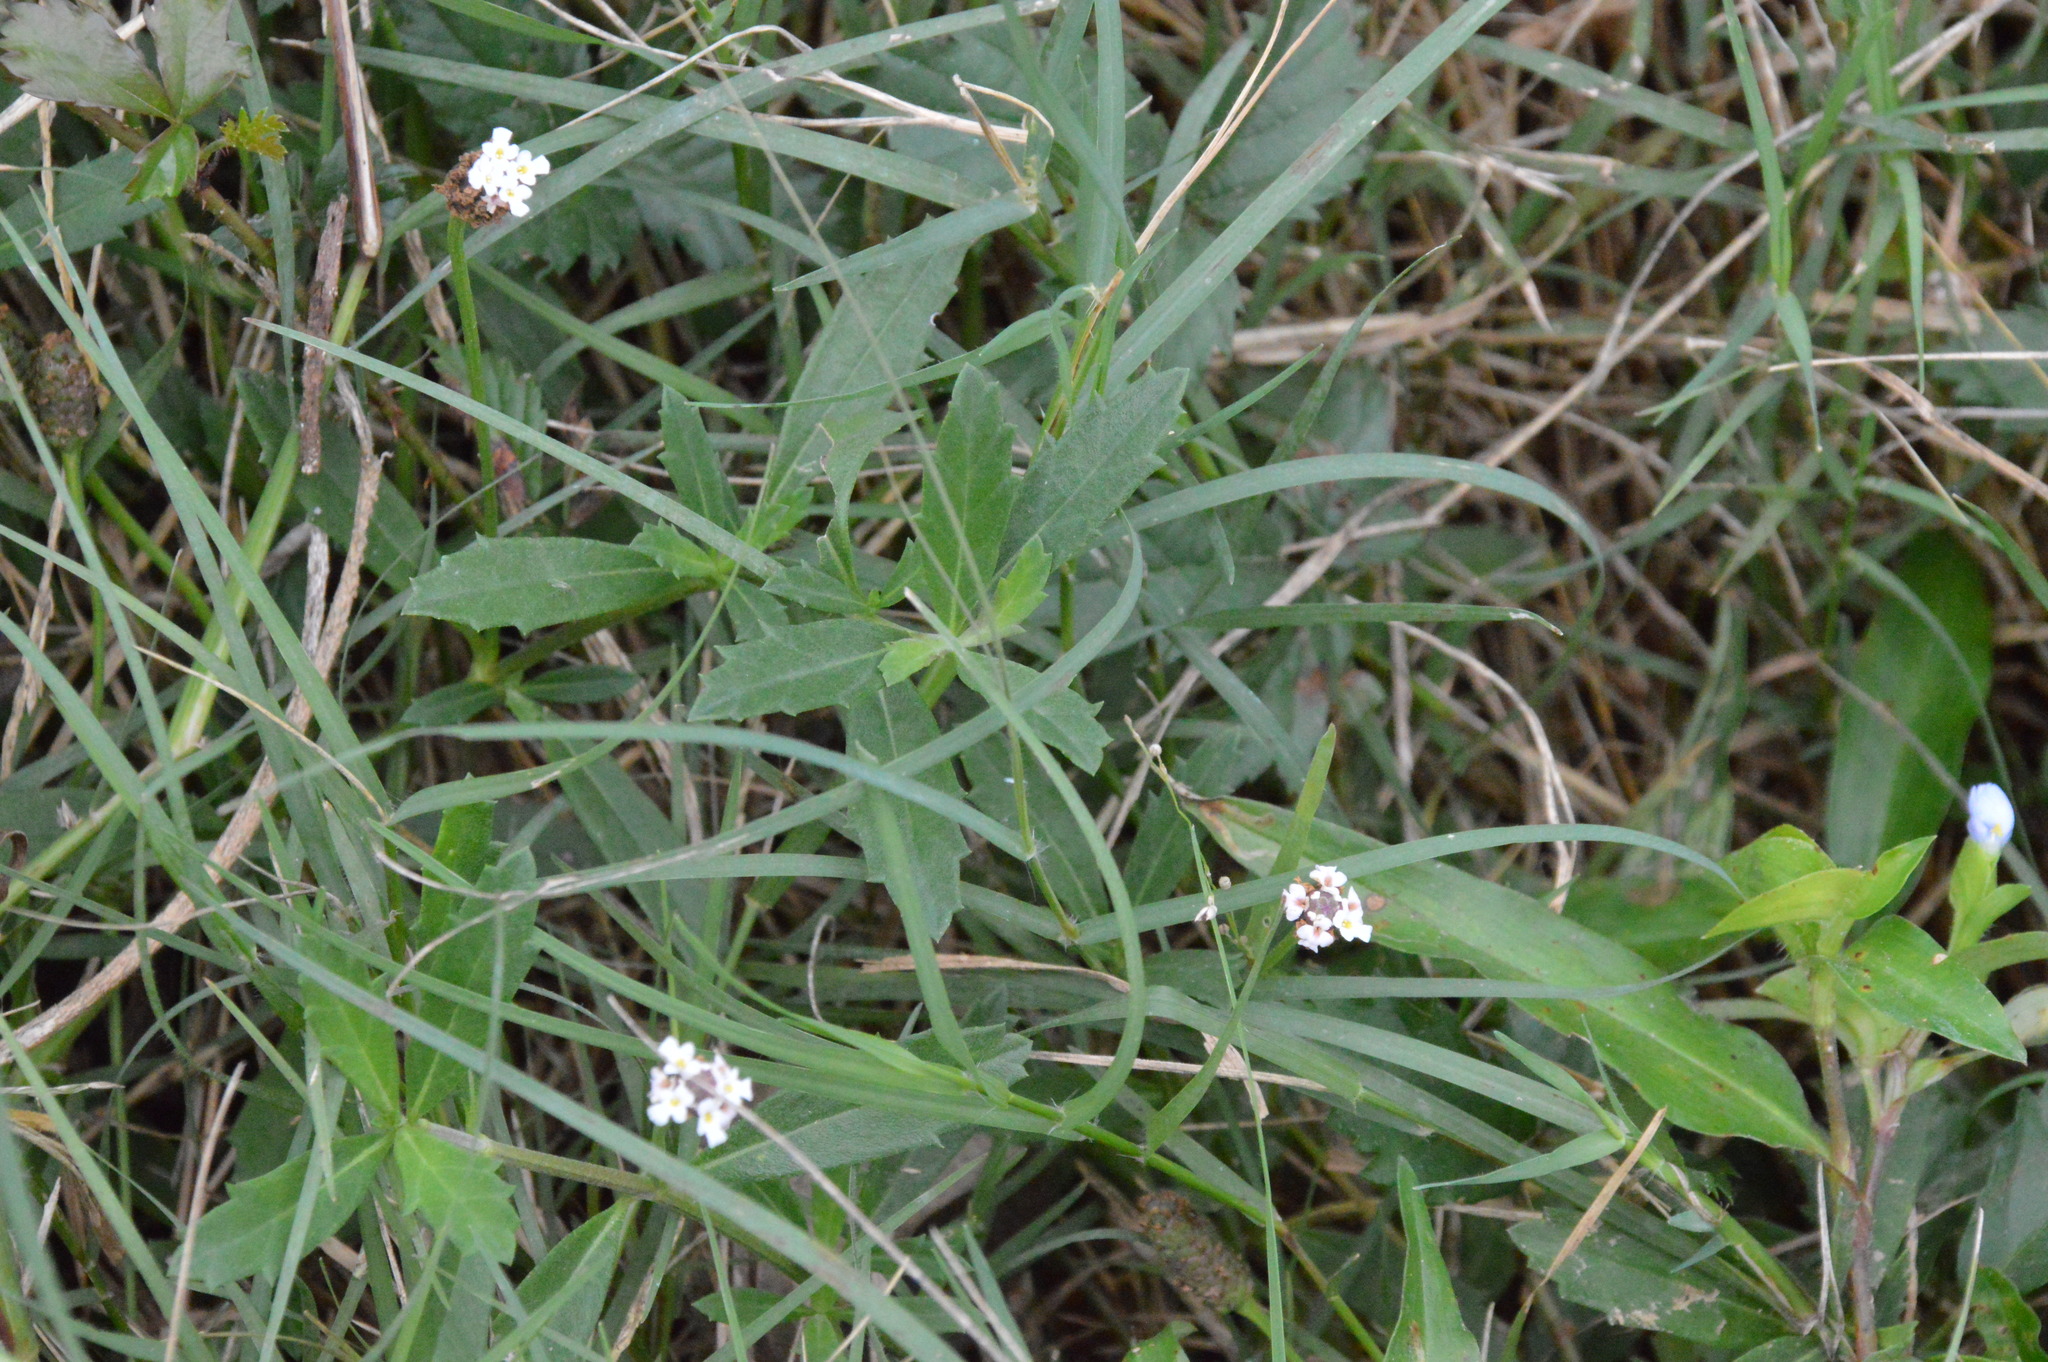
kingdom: Plantae
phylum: Tracheophyta
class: Magnoliopsida
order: Lamiales
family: Verbenaceae
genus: Phyla
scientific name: Phyla nodiflora
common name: Frogfruit
